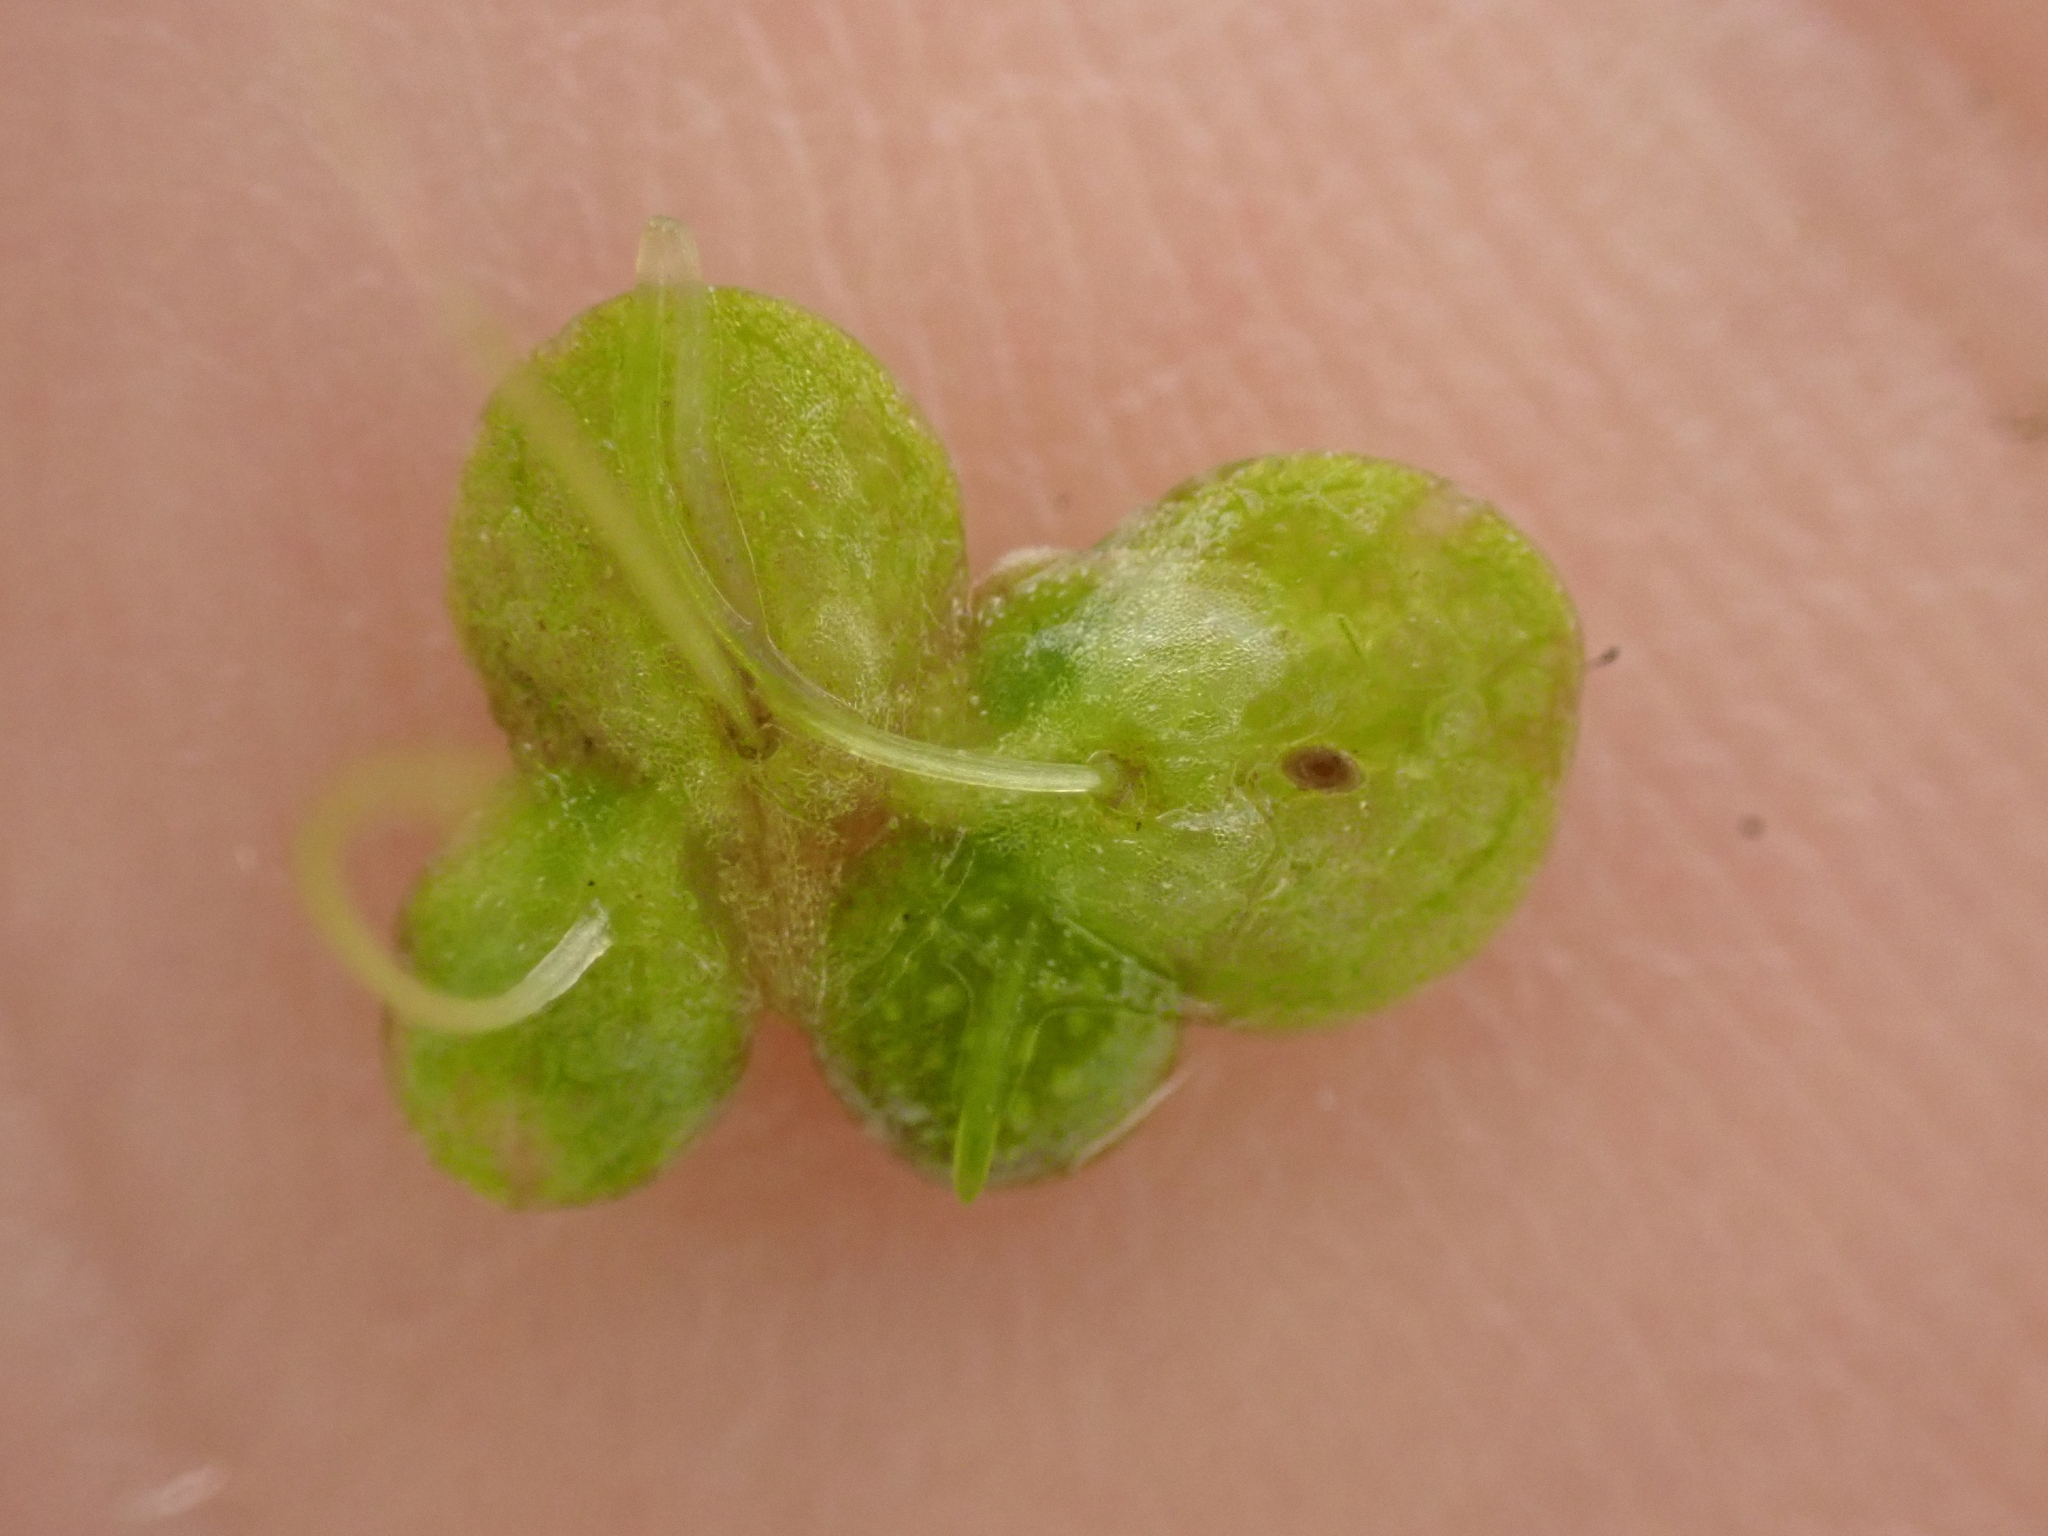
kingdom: Plantae
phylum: Tracheophyta
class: Liliopsida
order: Alismatales
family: Araceae
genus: Lemna
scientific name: Lemna gibba
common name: Fat duckweed
